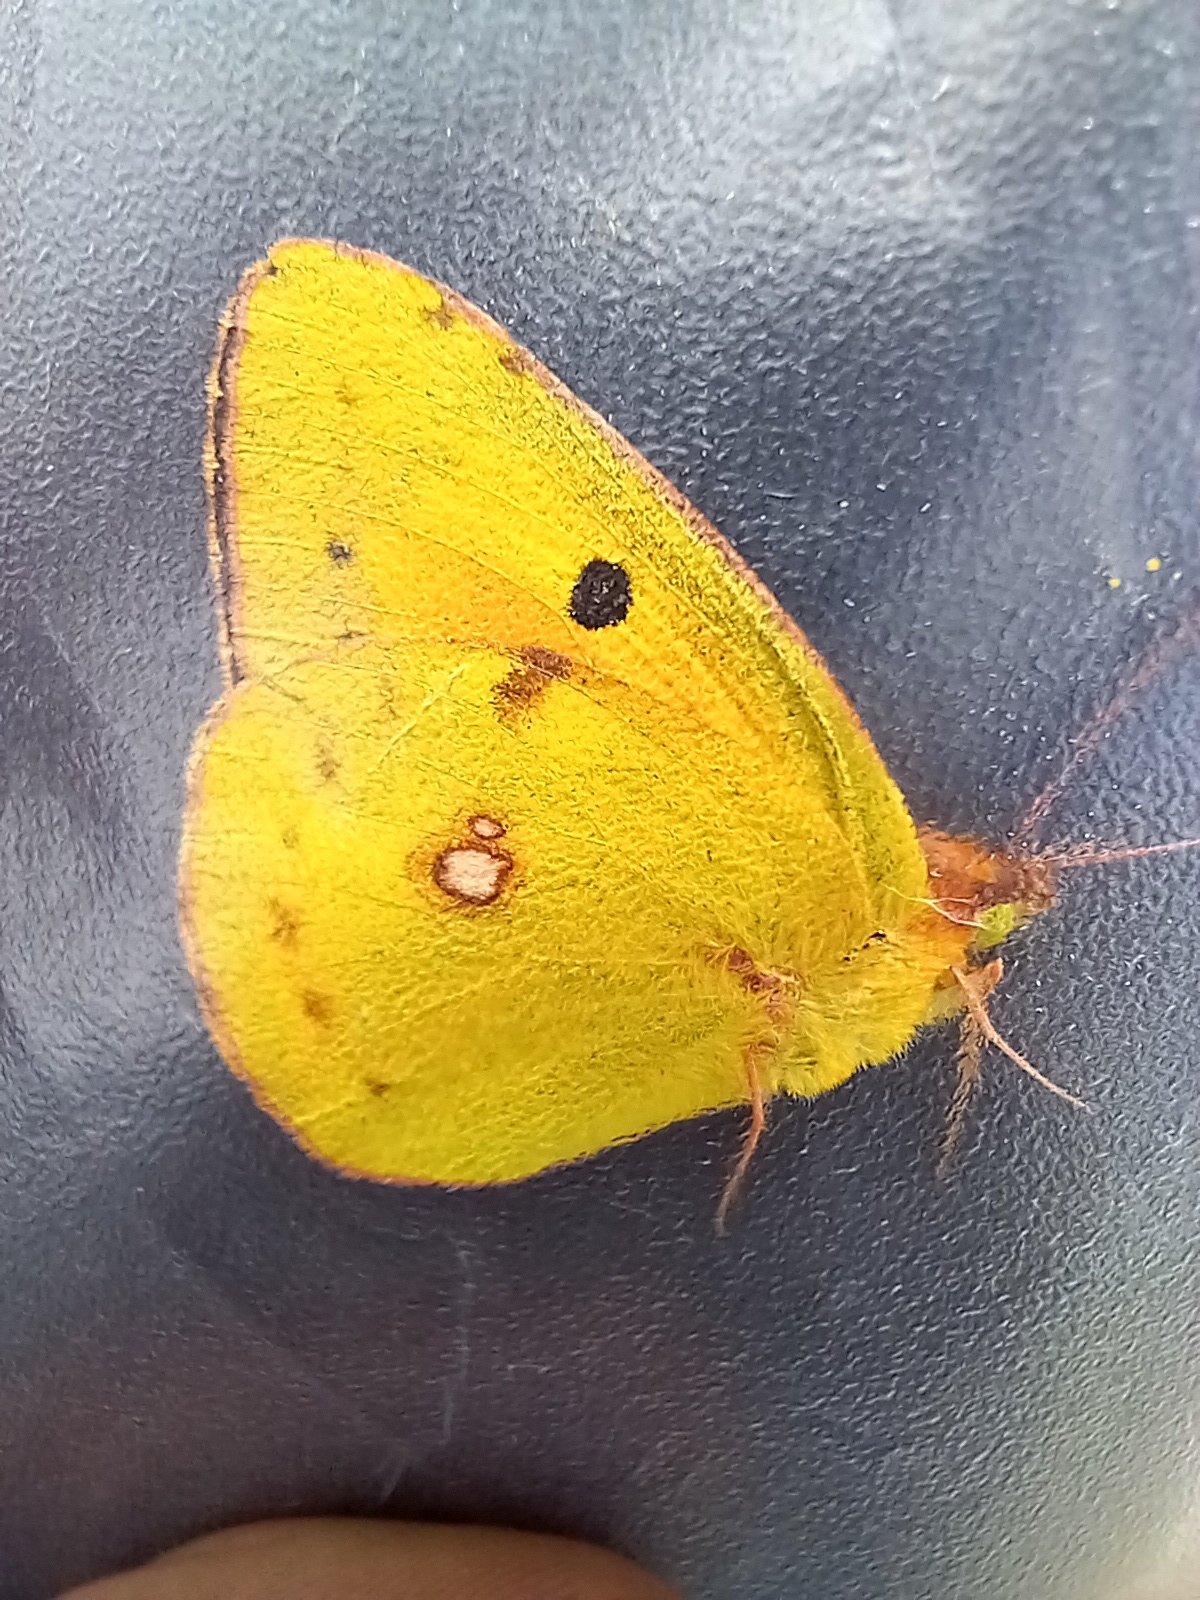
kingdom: Animalia
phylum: Arthropoda
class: Insecta
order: Lepidoptera
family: Pieridae
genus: Colias
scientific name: Colias croceus
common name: Clouded yellow
